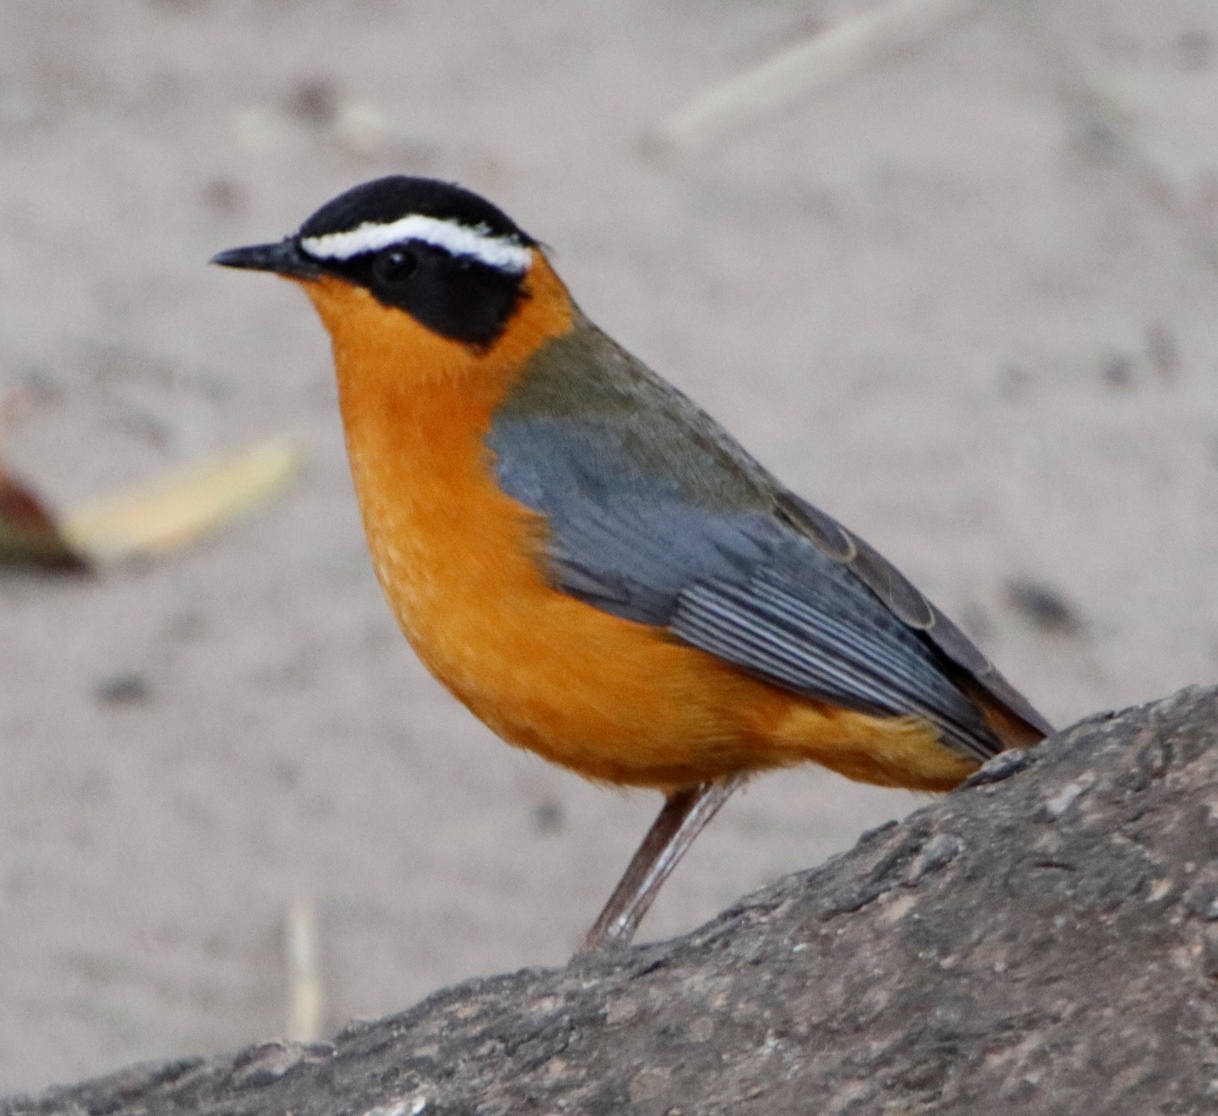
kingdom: Animalia
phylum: Chordata
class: Aves
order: Passeriformes
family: Muscicapidae
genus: Cossypha
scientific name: Cossypha heuglini
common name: White-browed robin-chat
